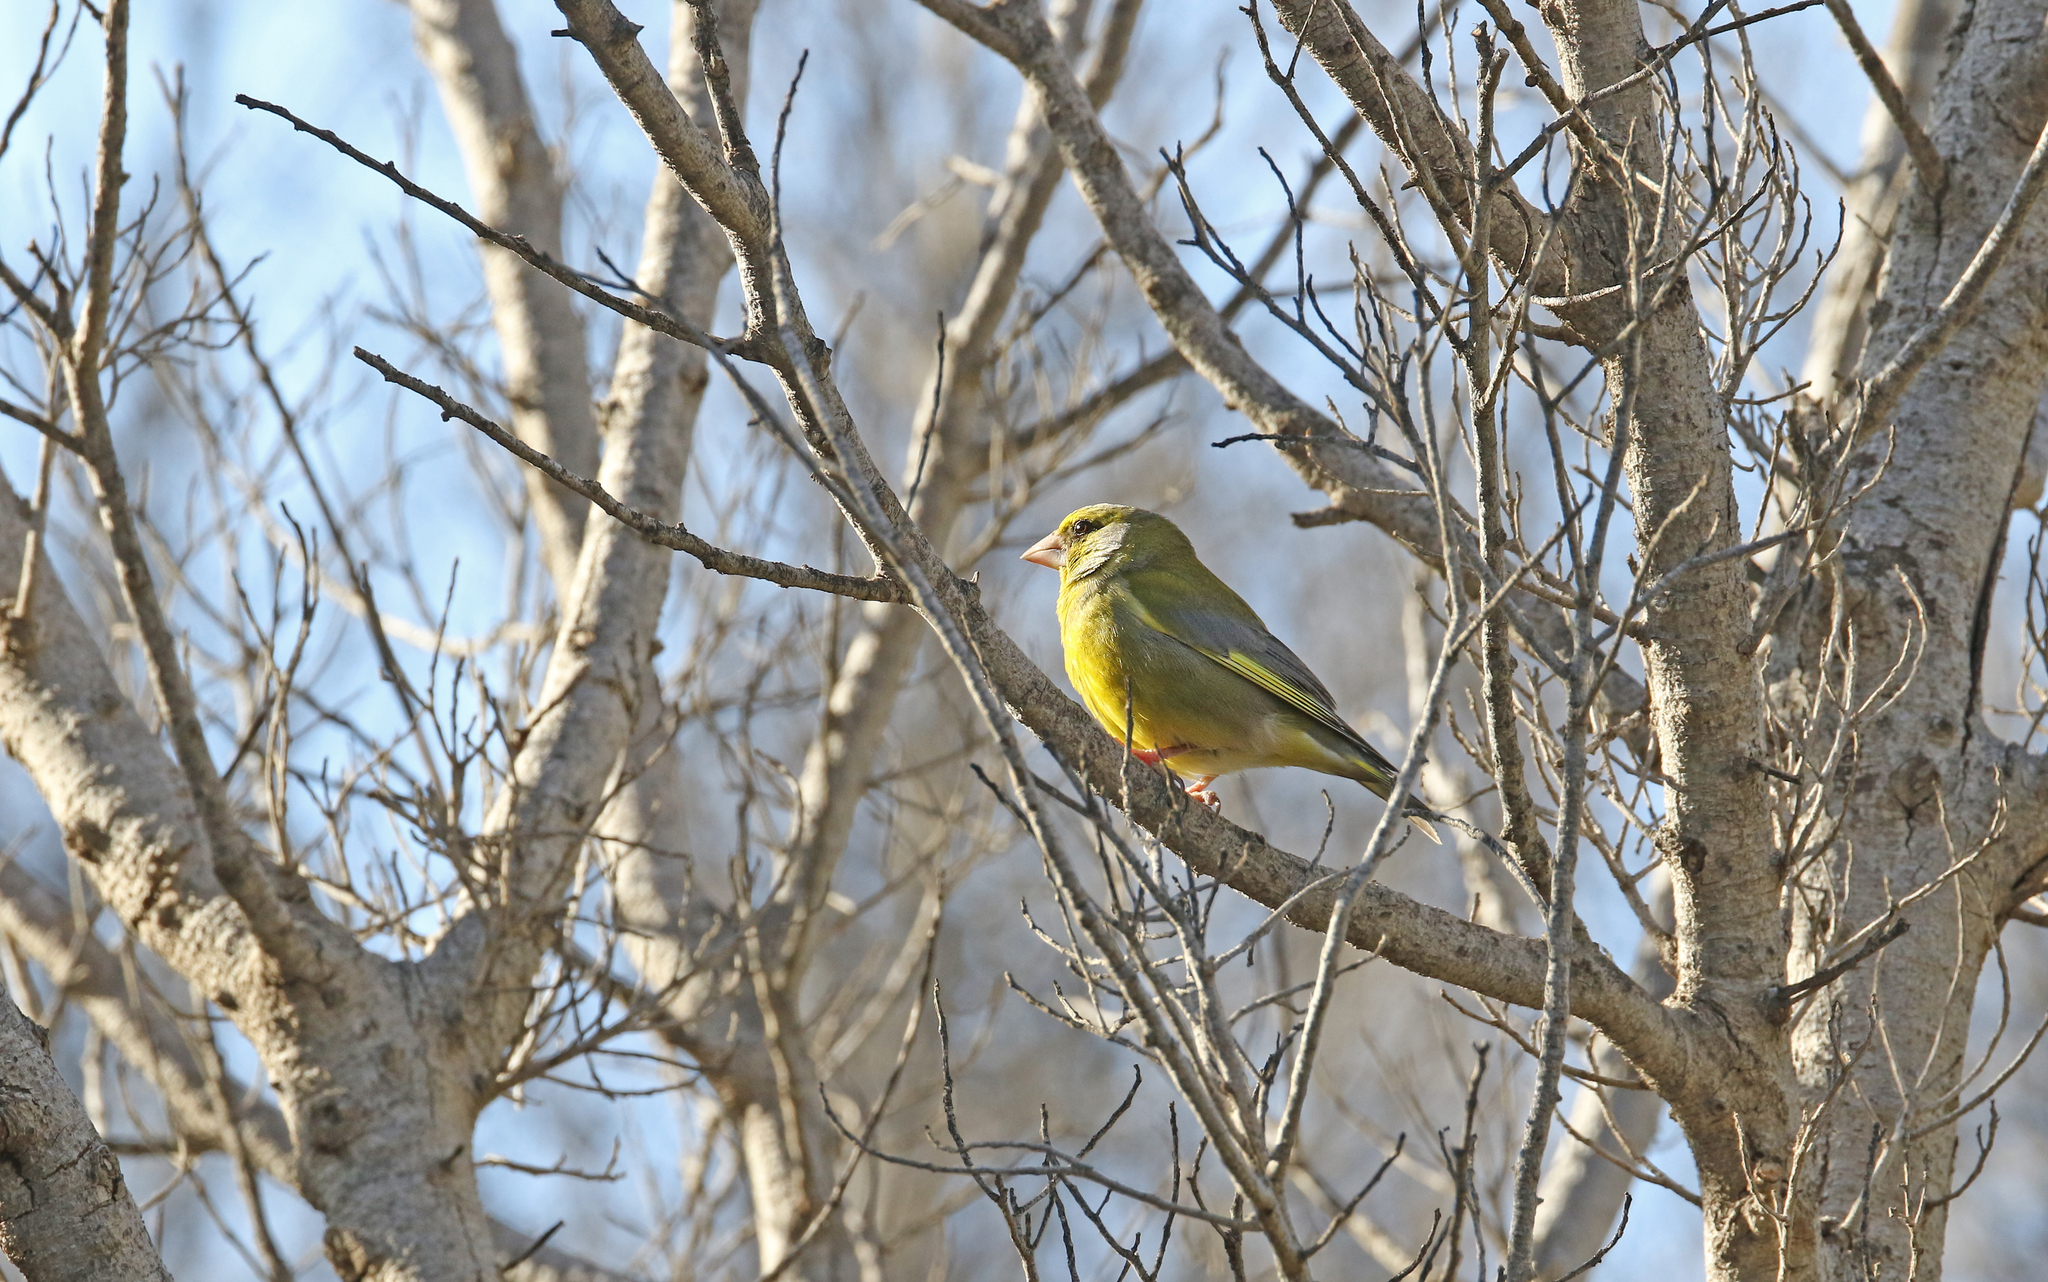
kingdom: Plantae
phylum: Tracheophyta
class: Liliopsida
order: Poales
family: Poaceae
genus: Chloris
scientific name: Chloris chloris
